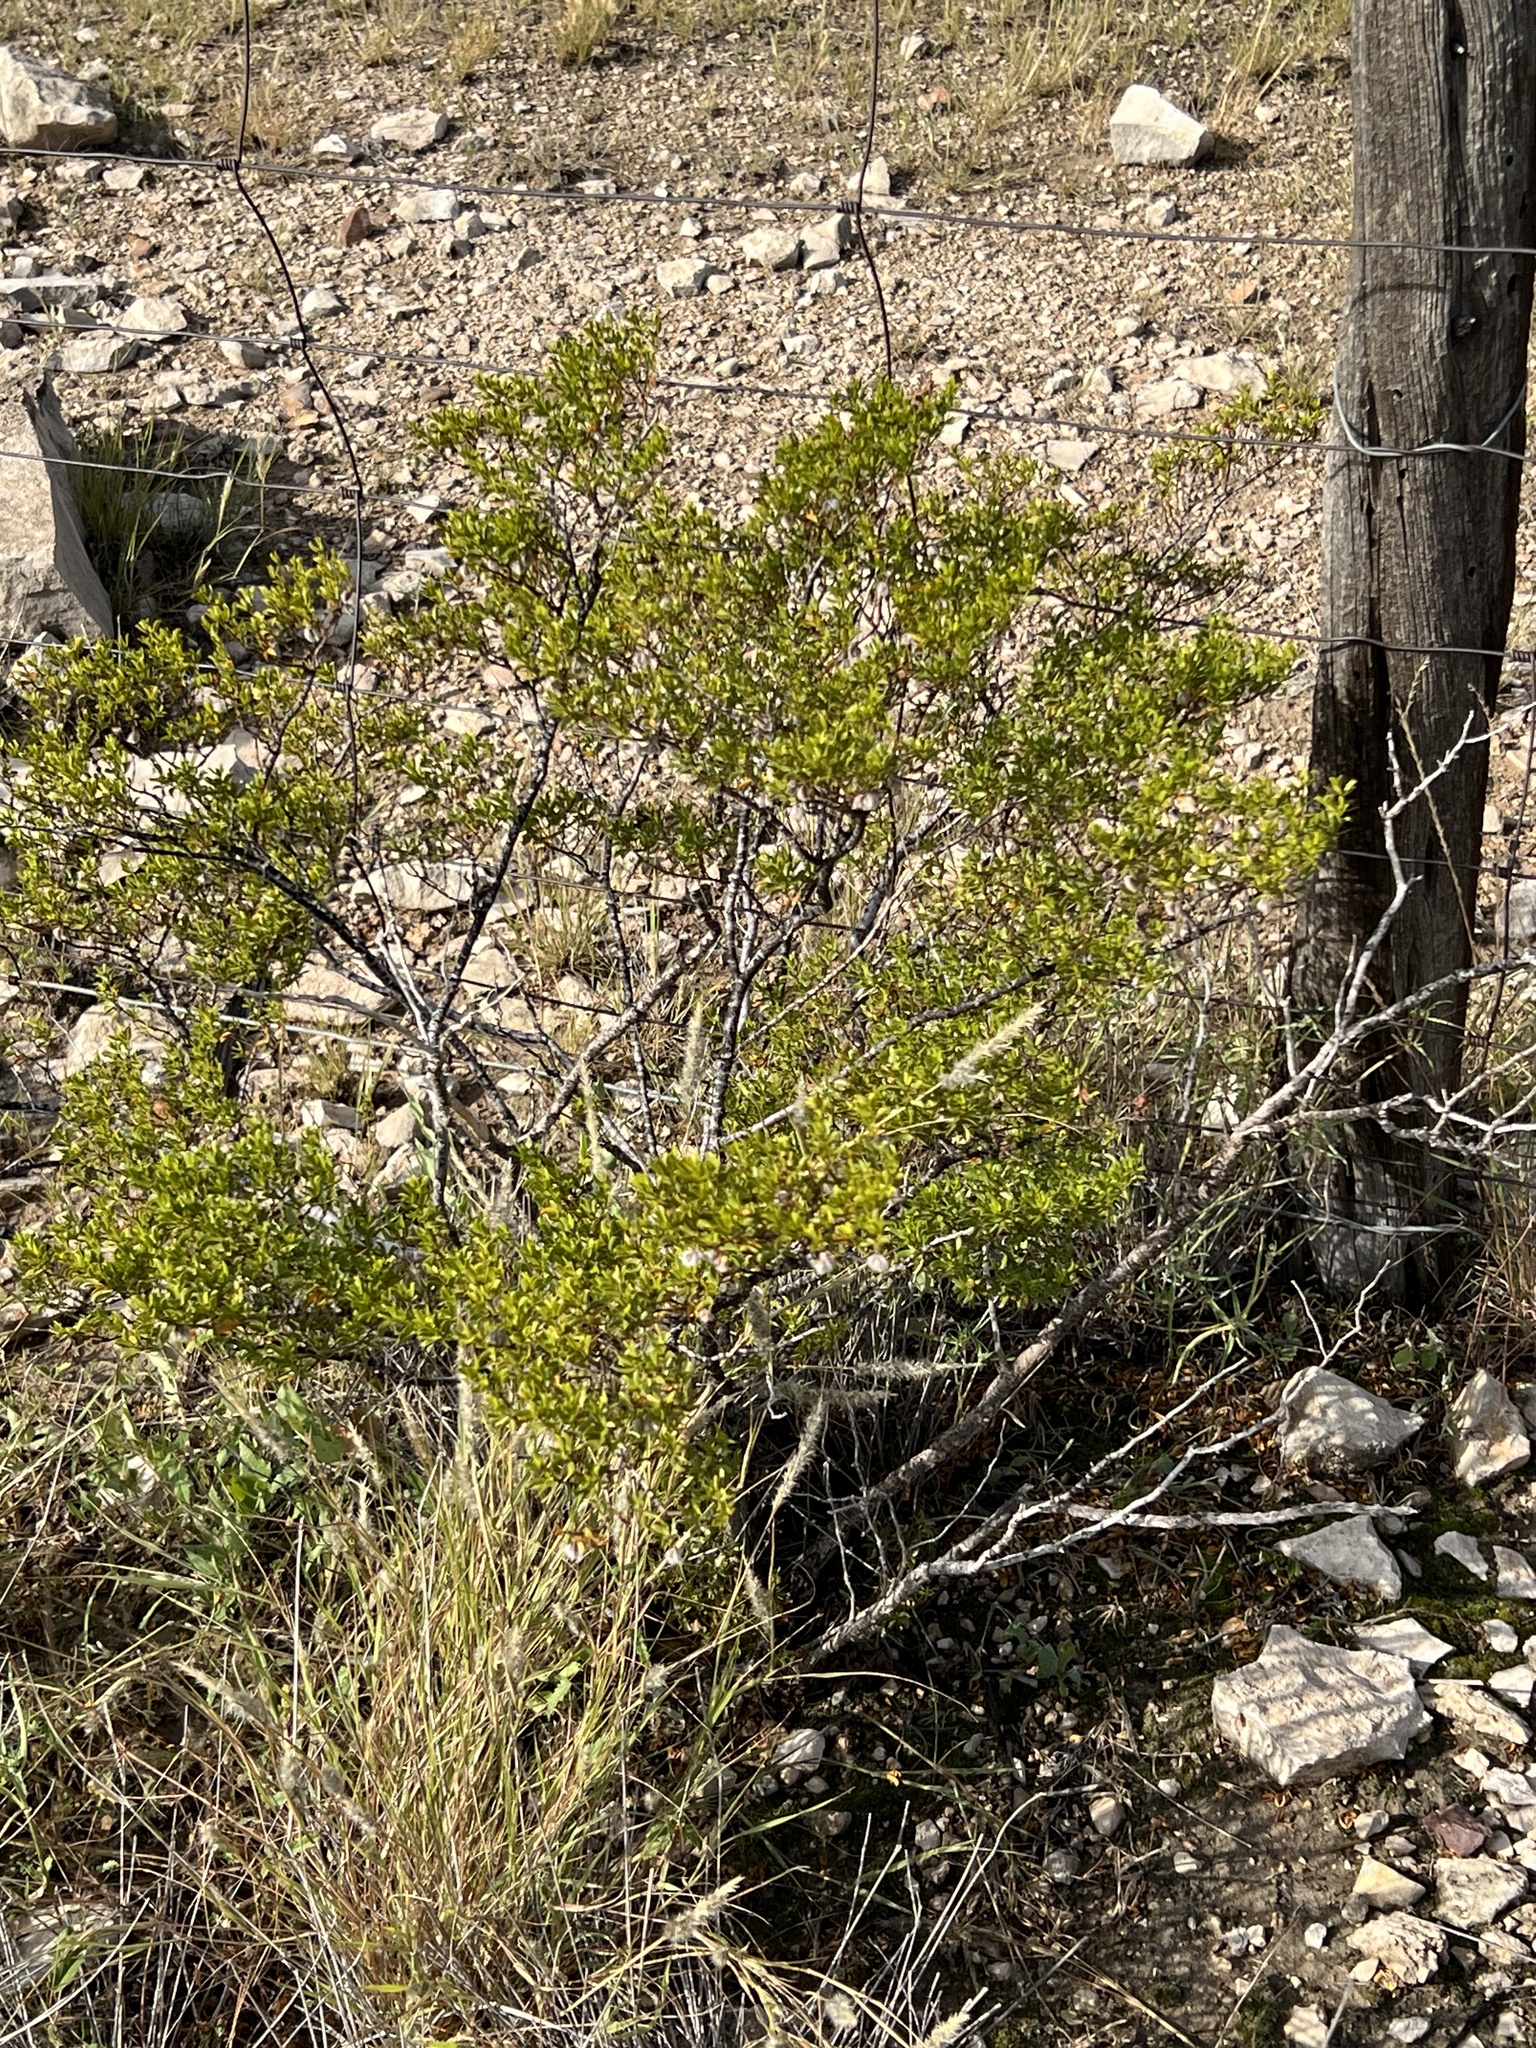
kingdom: Plantae
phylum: Tracheophyta
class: Magnoliopsida
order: Zygophyllales
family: Zygophyllaceae
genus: Larrea
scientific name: Larrea tridentata
